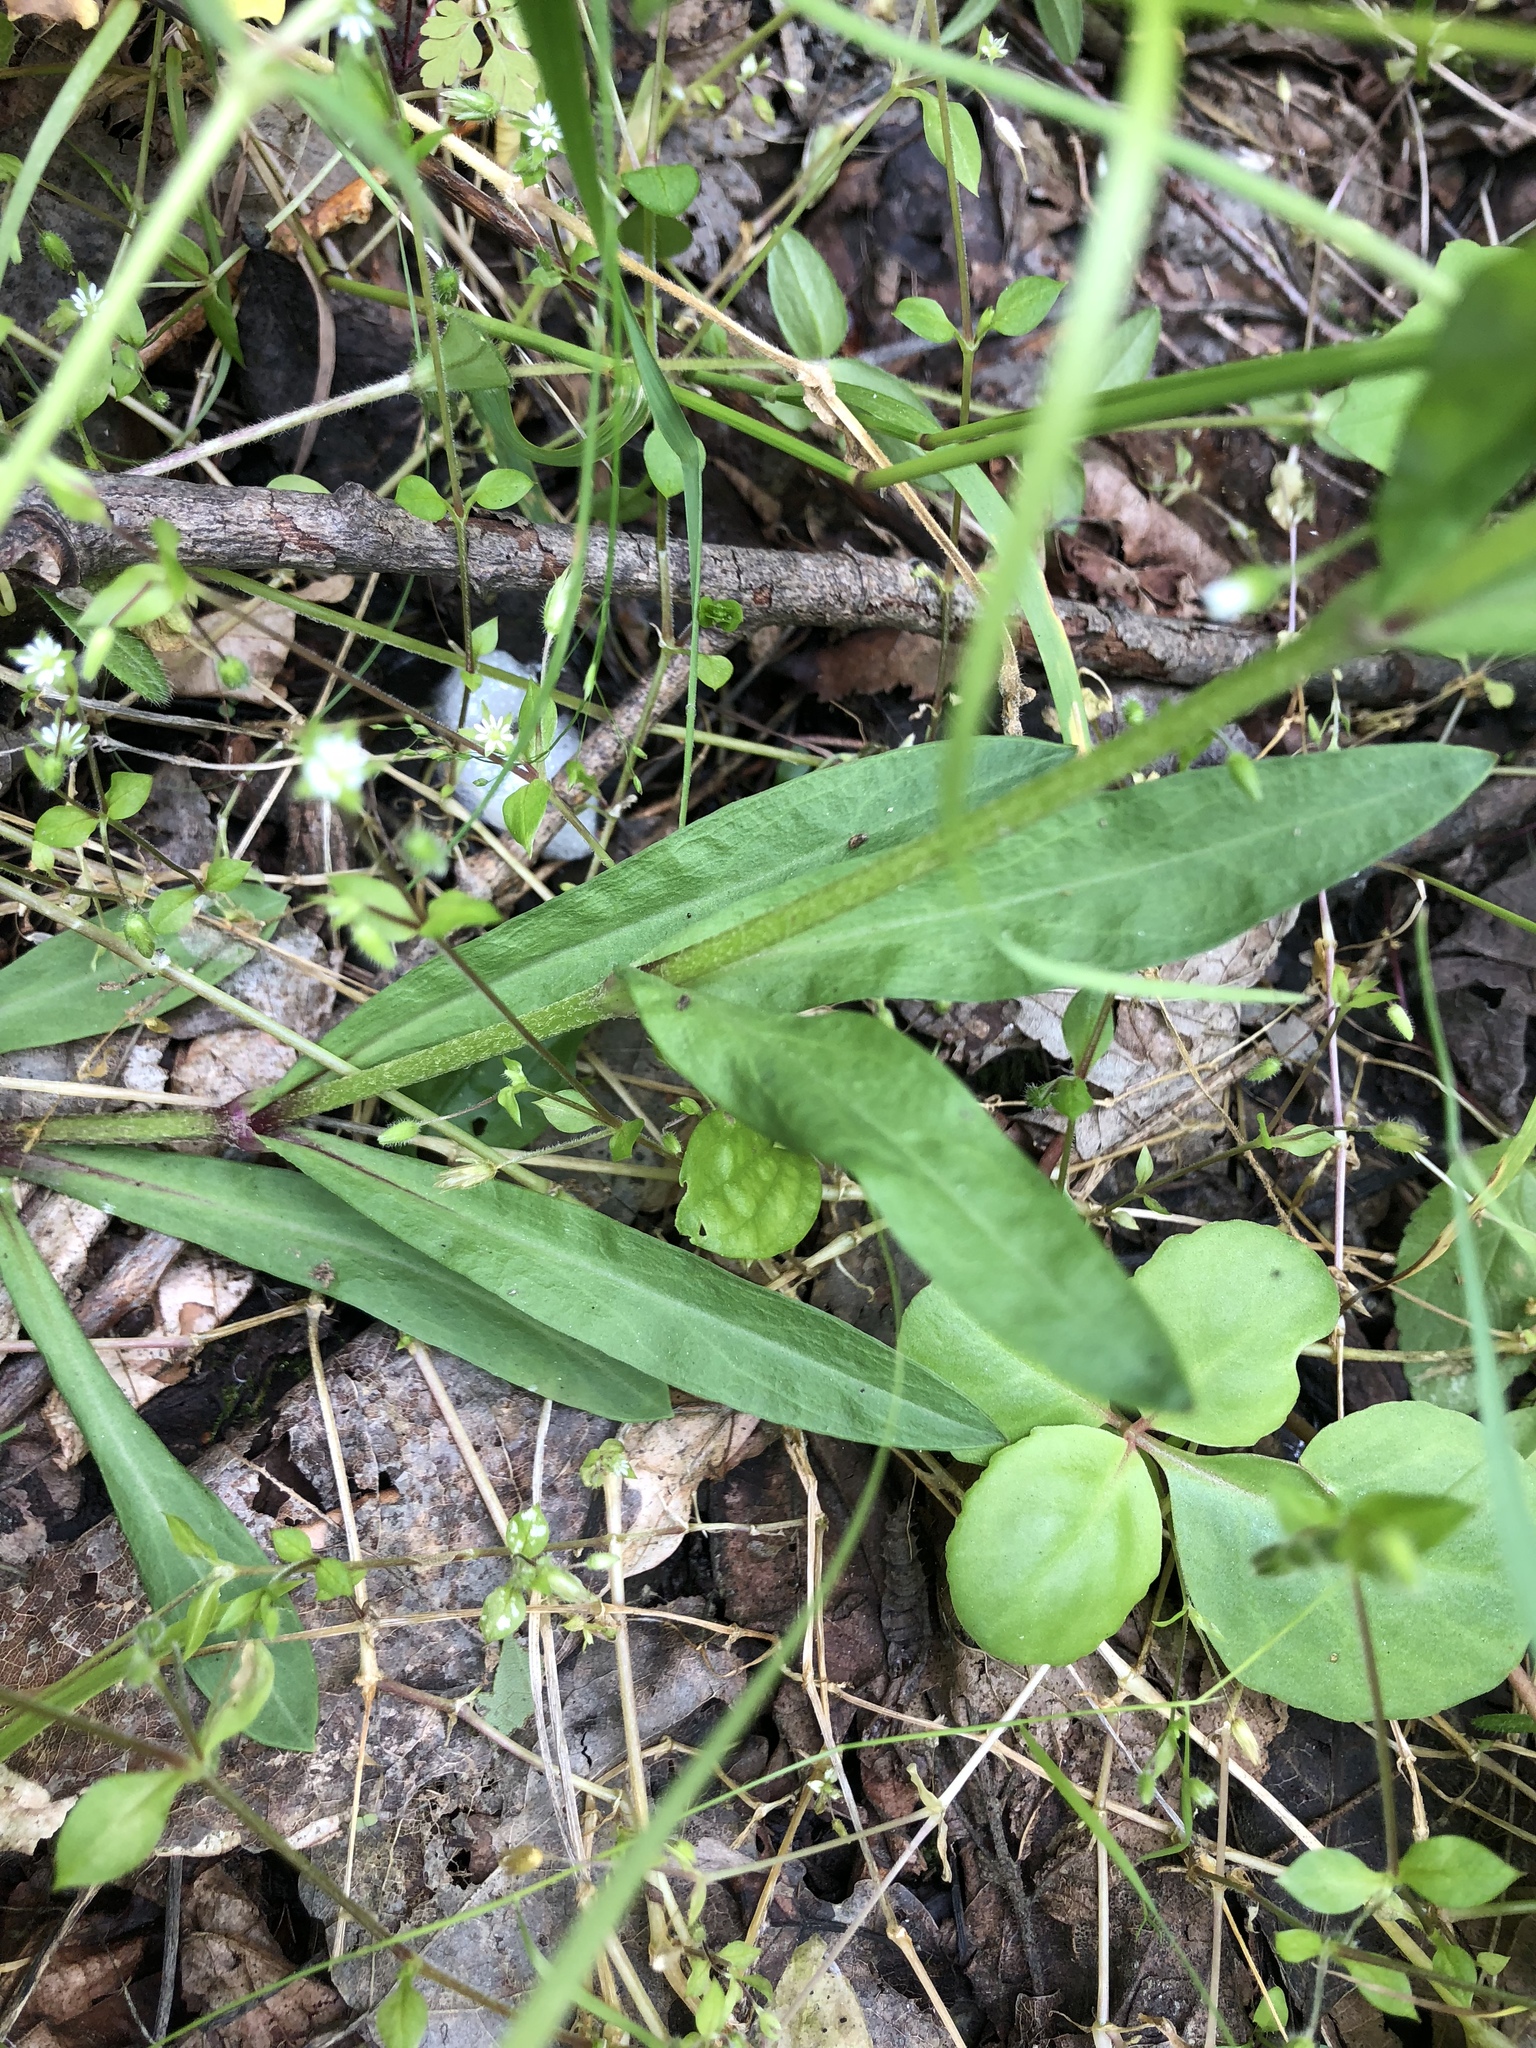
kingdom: Plantae
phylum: Tracheophyta
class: Magnoliopsida
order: Caryophyllales
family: Caryophyllaceae
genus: Silene
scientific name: Silene flos-cuculi
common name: Ragged-robin
